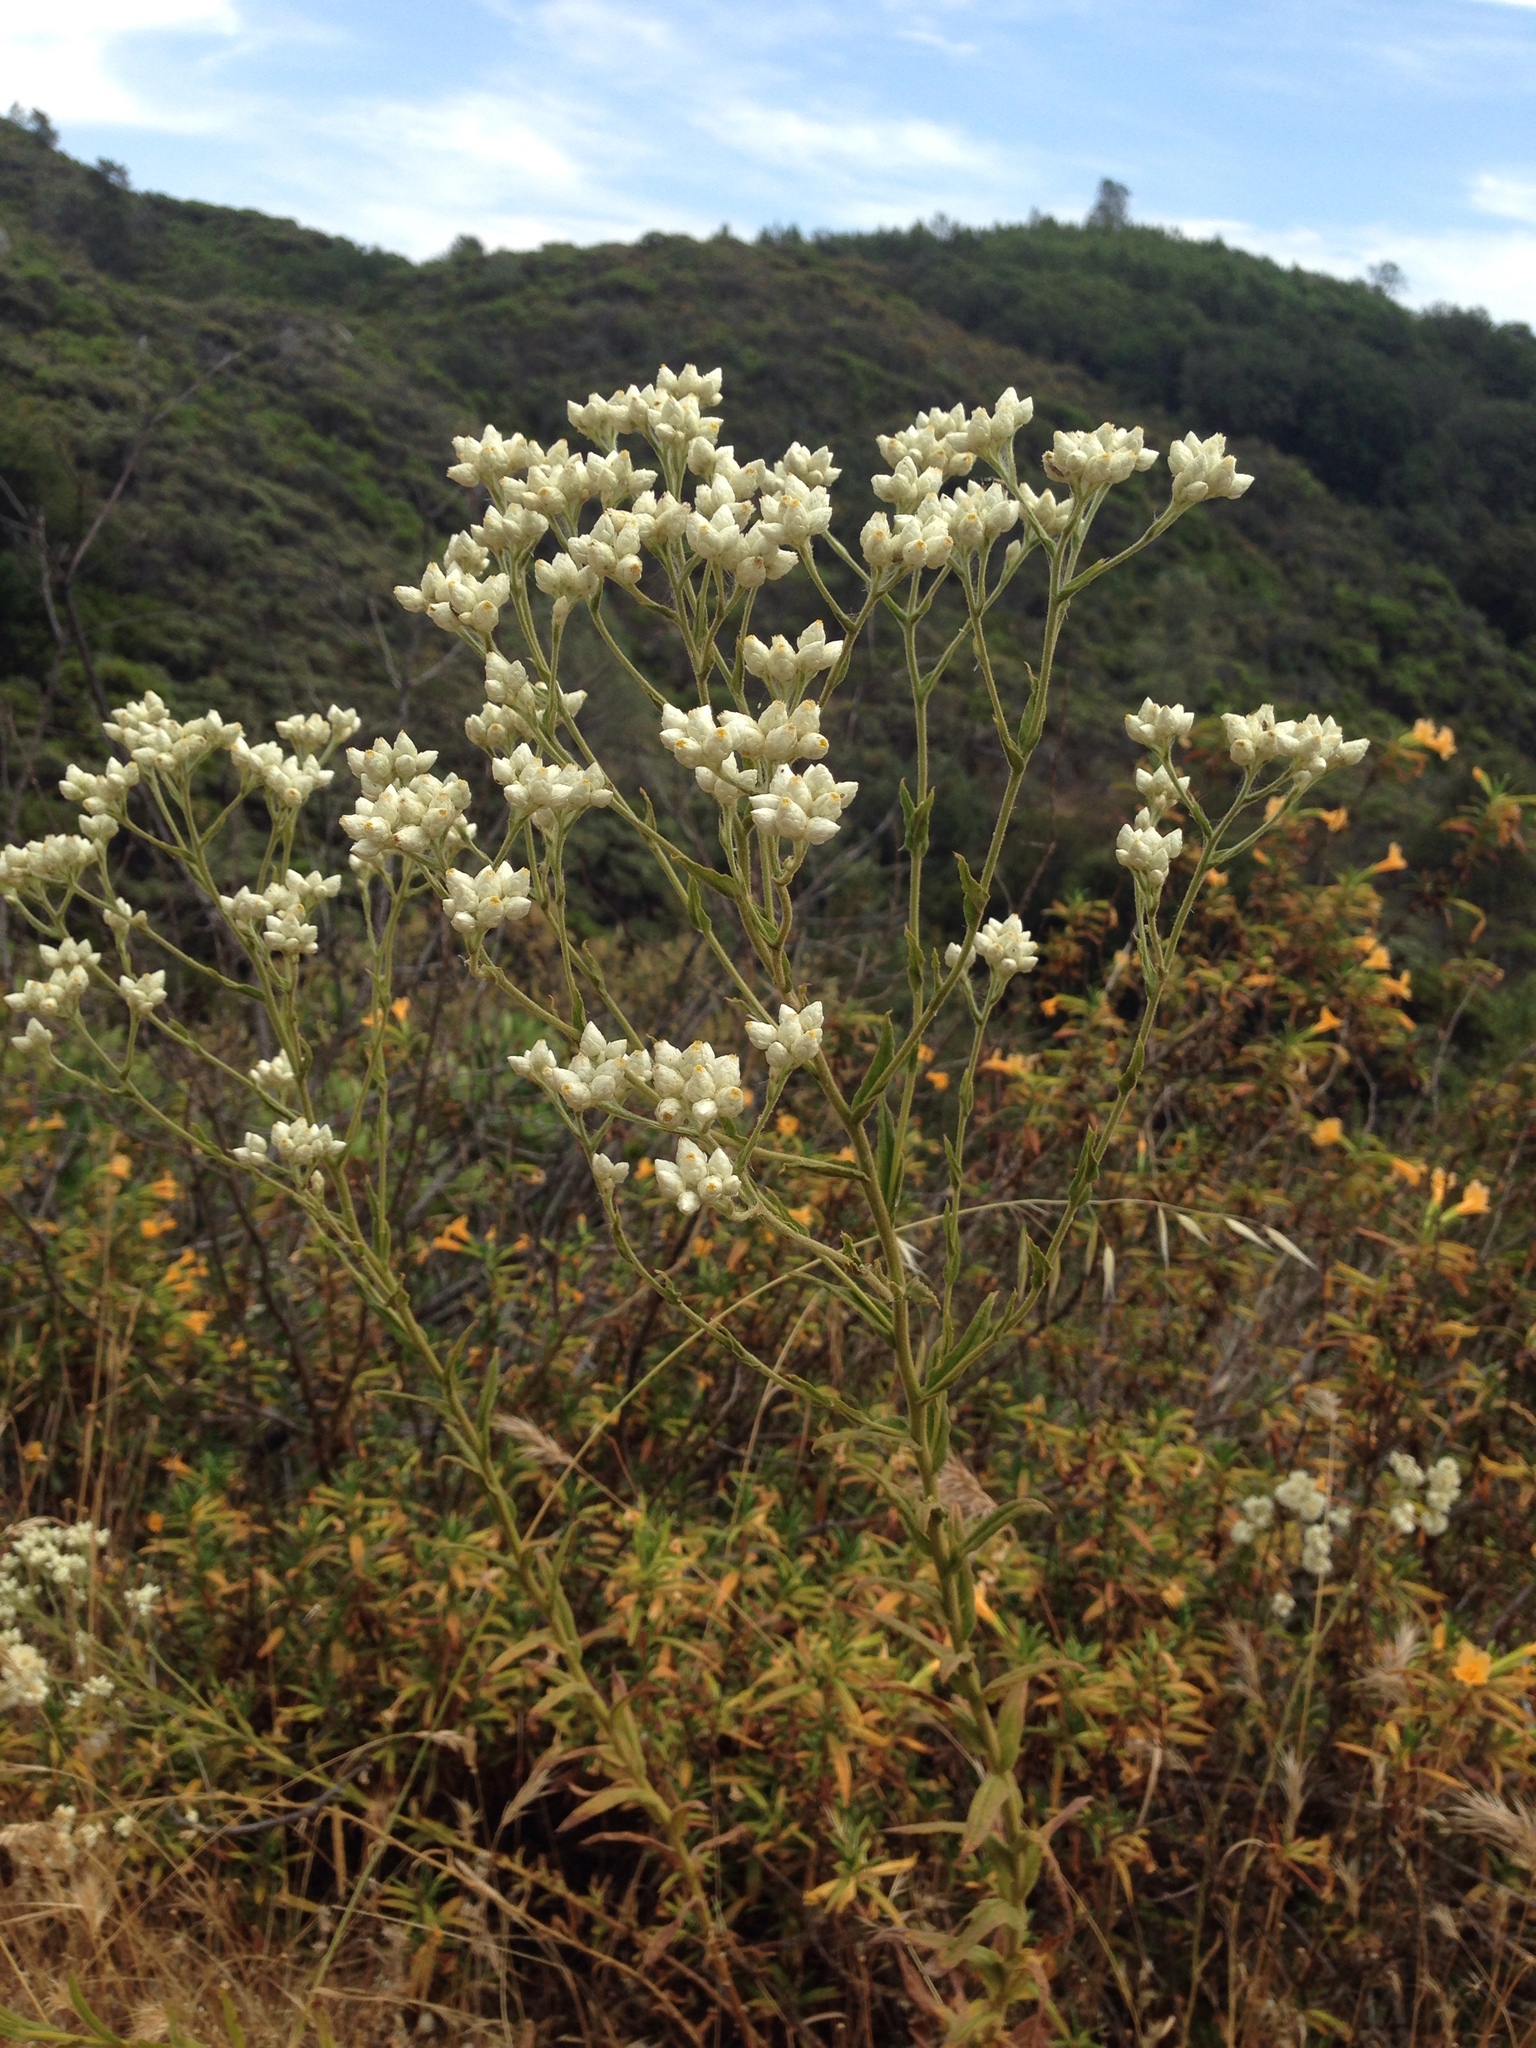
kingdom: Plantae
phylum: Tracheophyta
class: Magnoliopsida
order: Asterales
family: Asteraceae
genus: Pseudognaphalium
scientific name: Pseudognaphalium californicum
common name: California rabbit-tobacco
